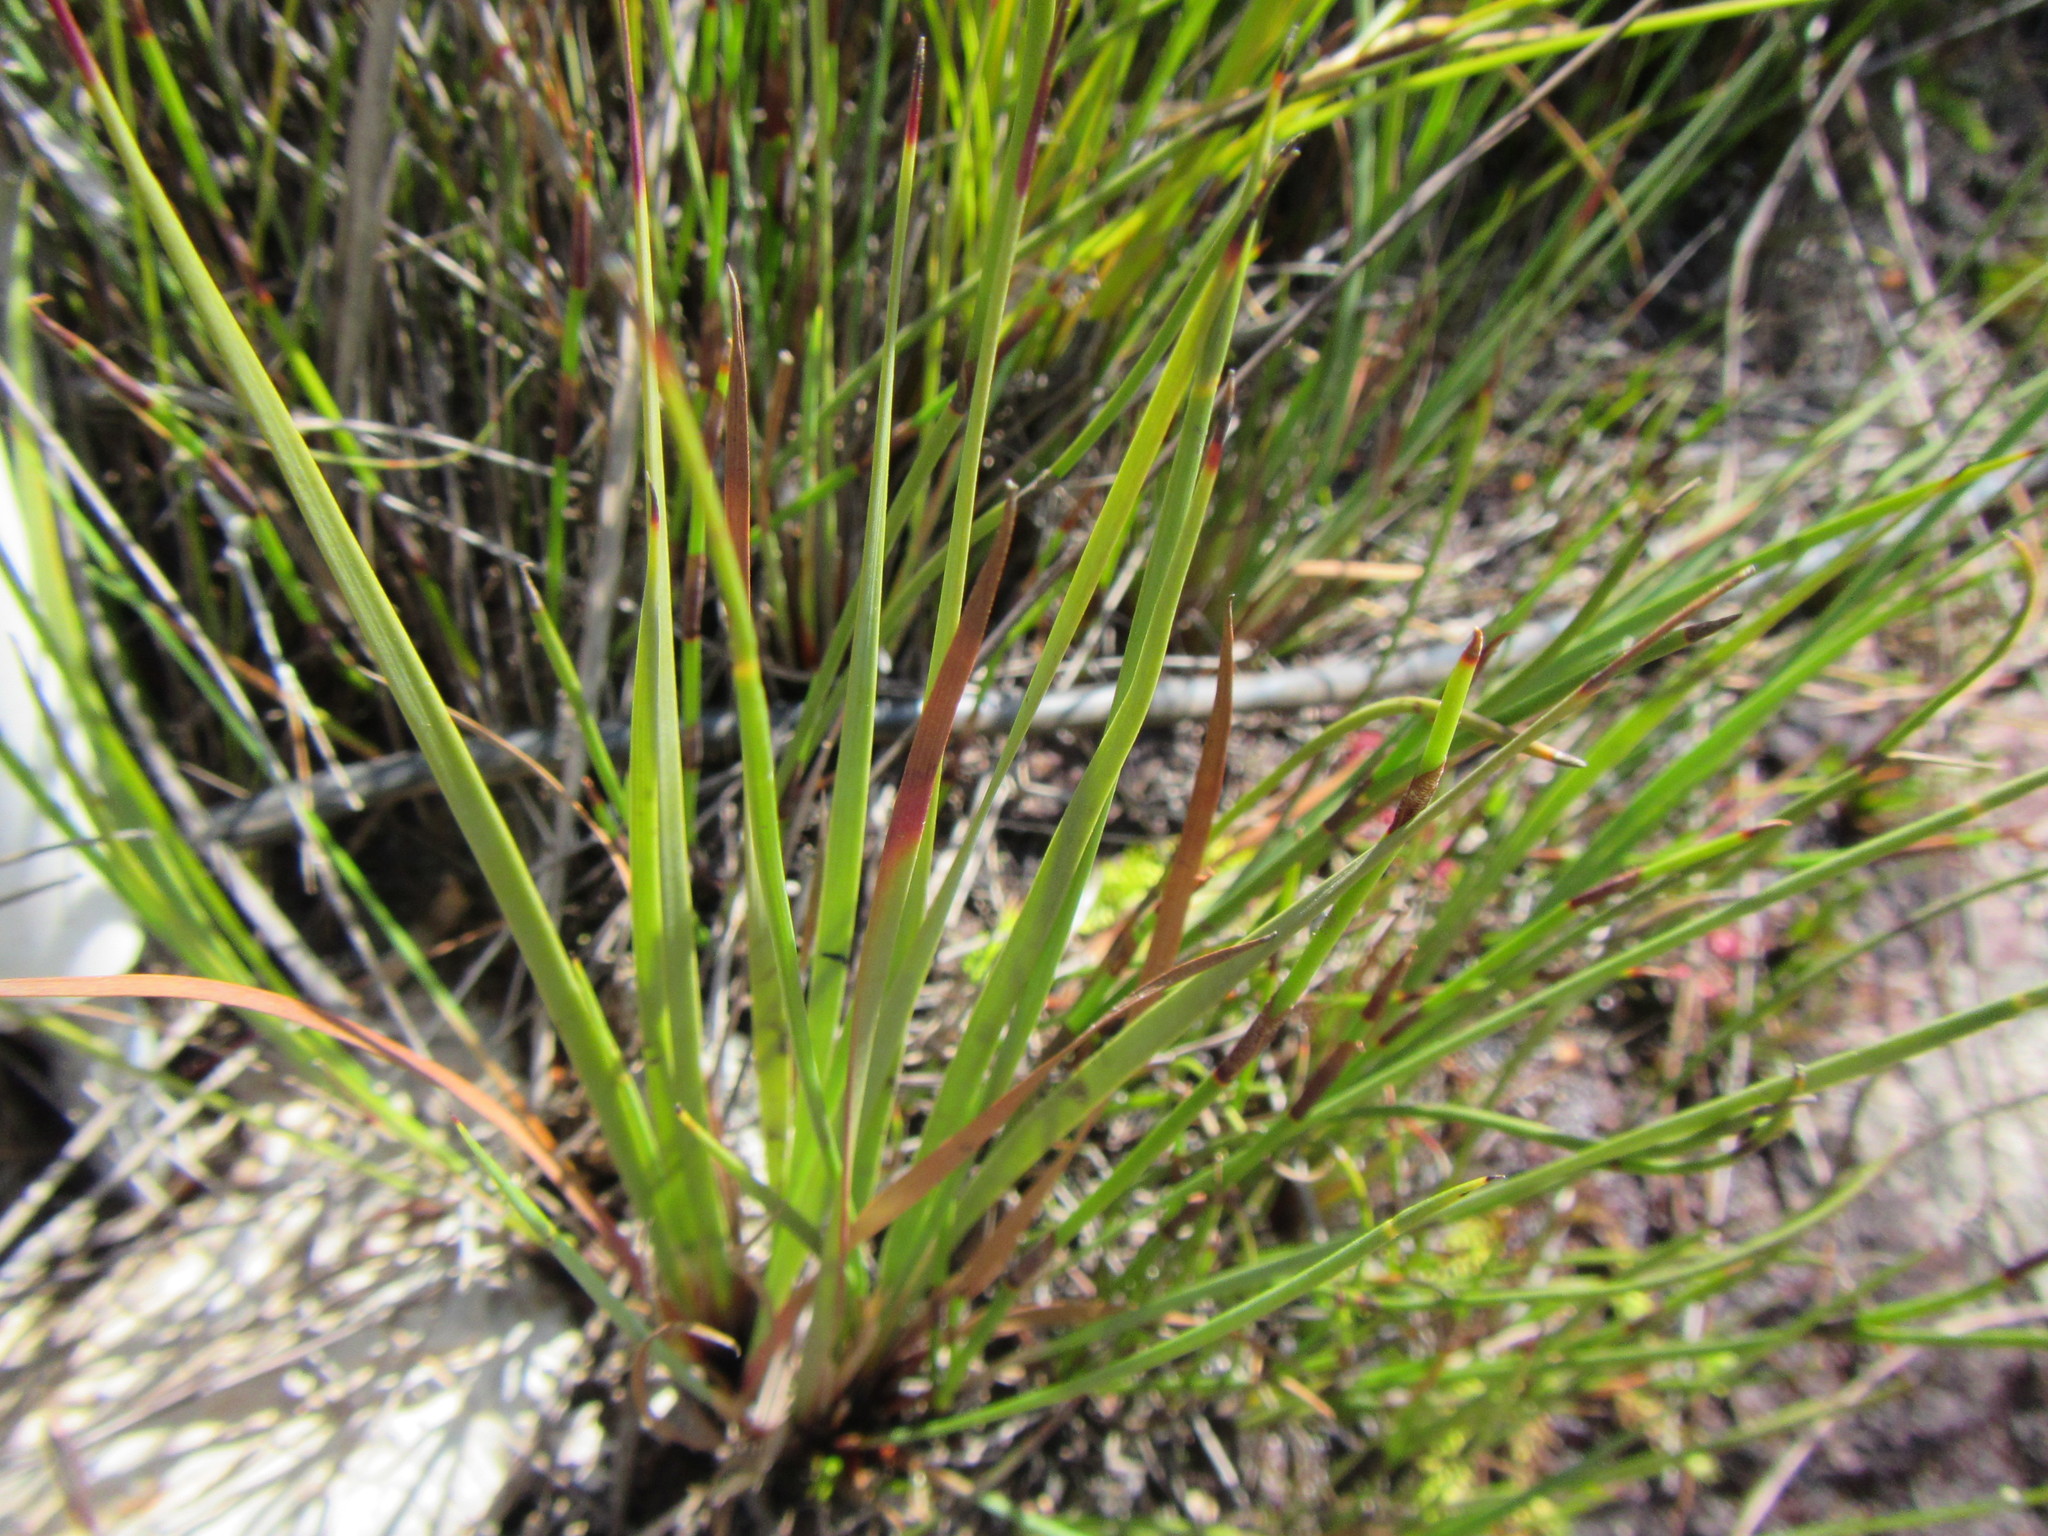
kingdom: Plantae
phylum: Tracheophyta
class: Liliopsida
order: Poales
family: Cyperaceae
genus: Schoenus
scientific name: Schoenus complanatus
